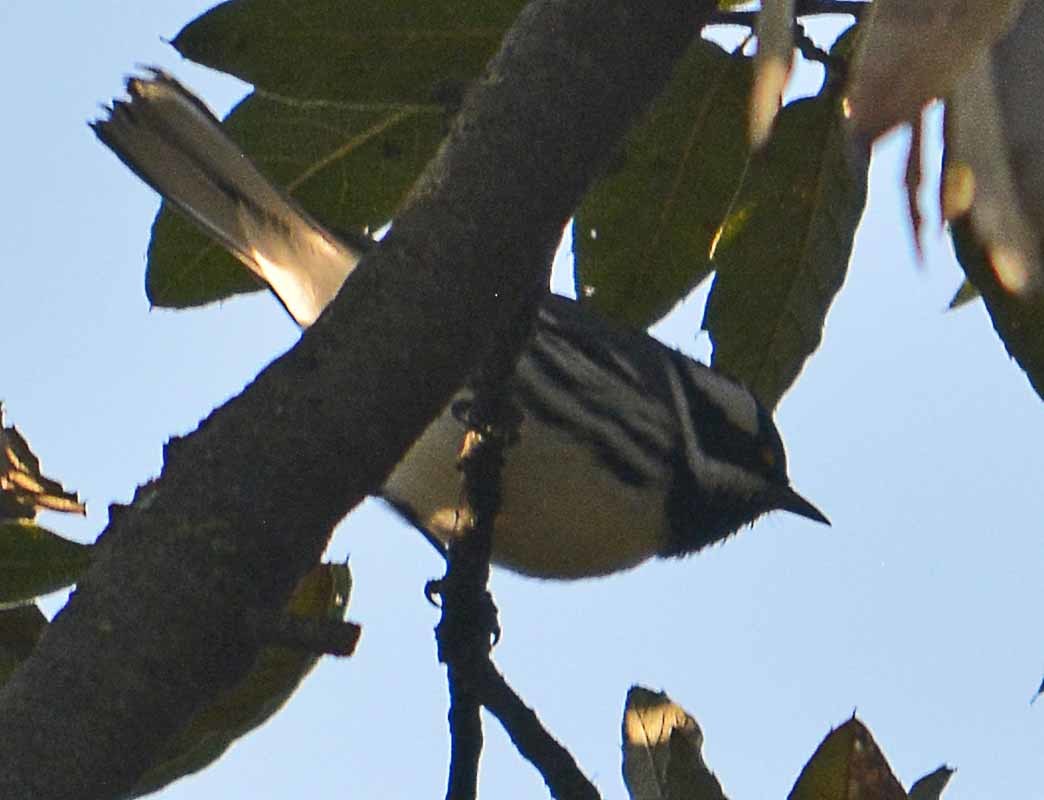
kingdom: Animalia
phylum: Chordata
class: Aves
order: Passeriformes
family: Parulidae
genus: Setophaga
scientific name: Setophaga nigrescens
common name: Black-throated gray warbler
